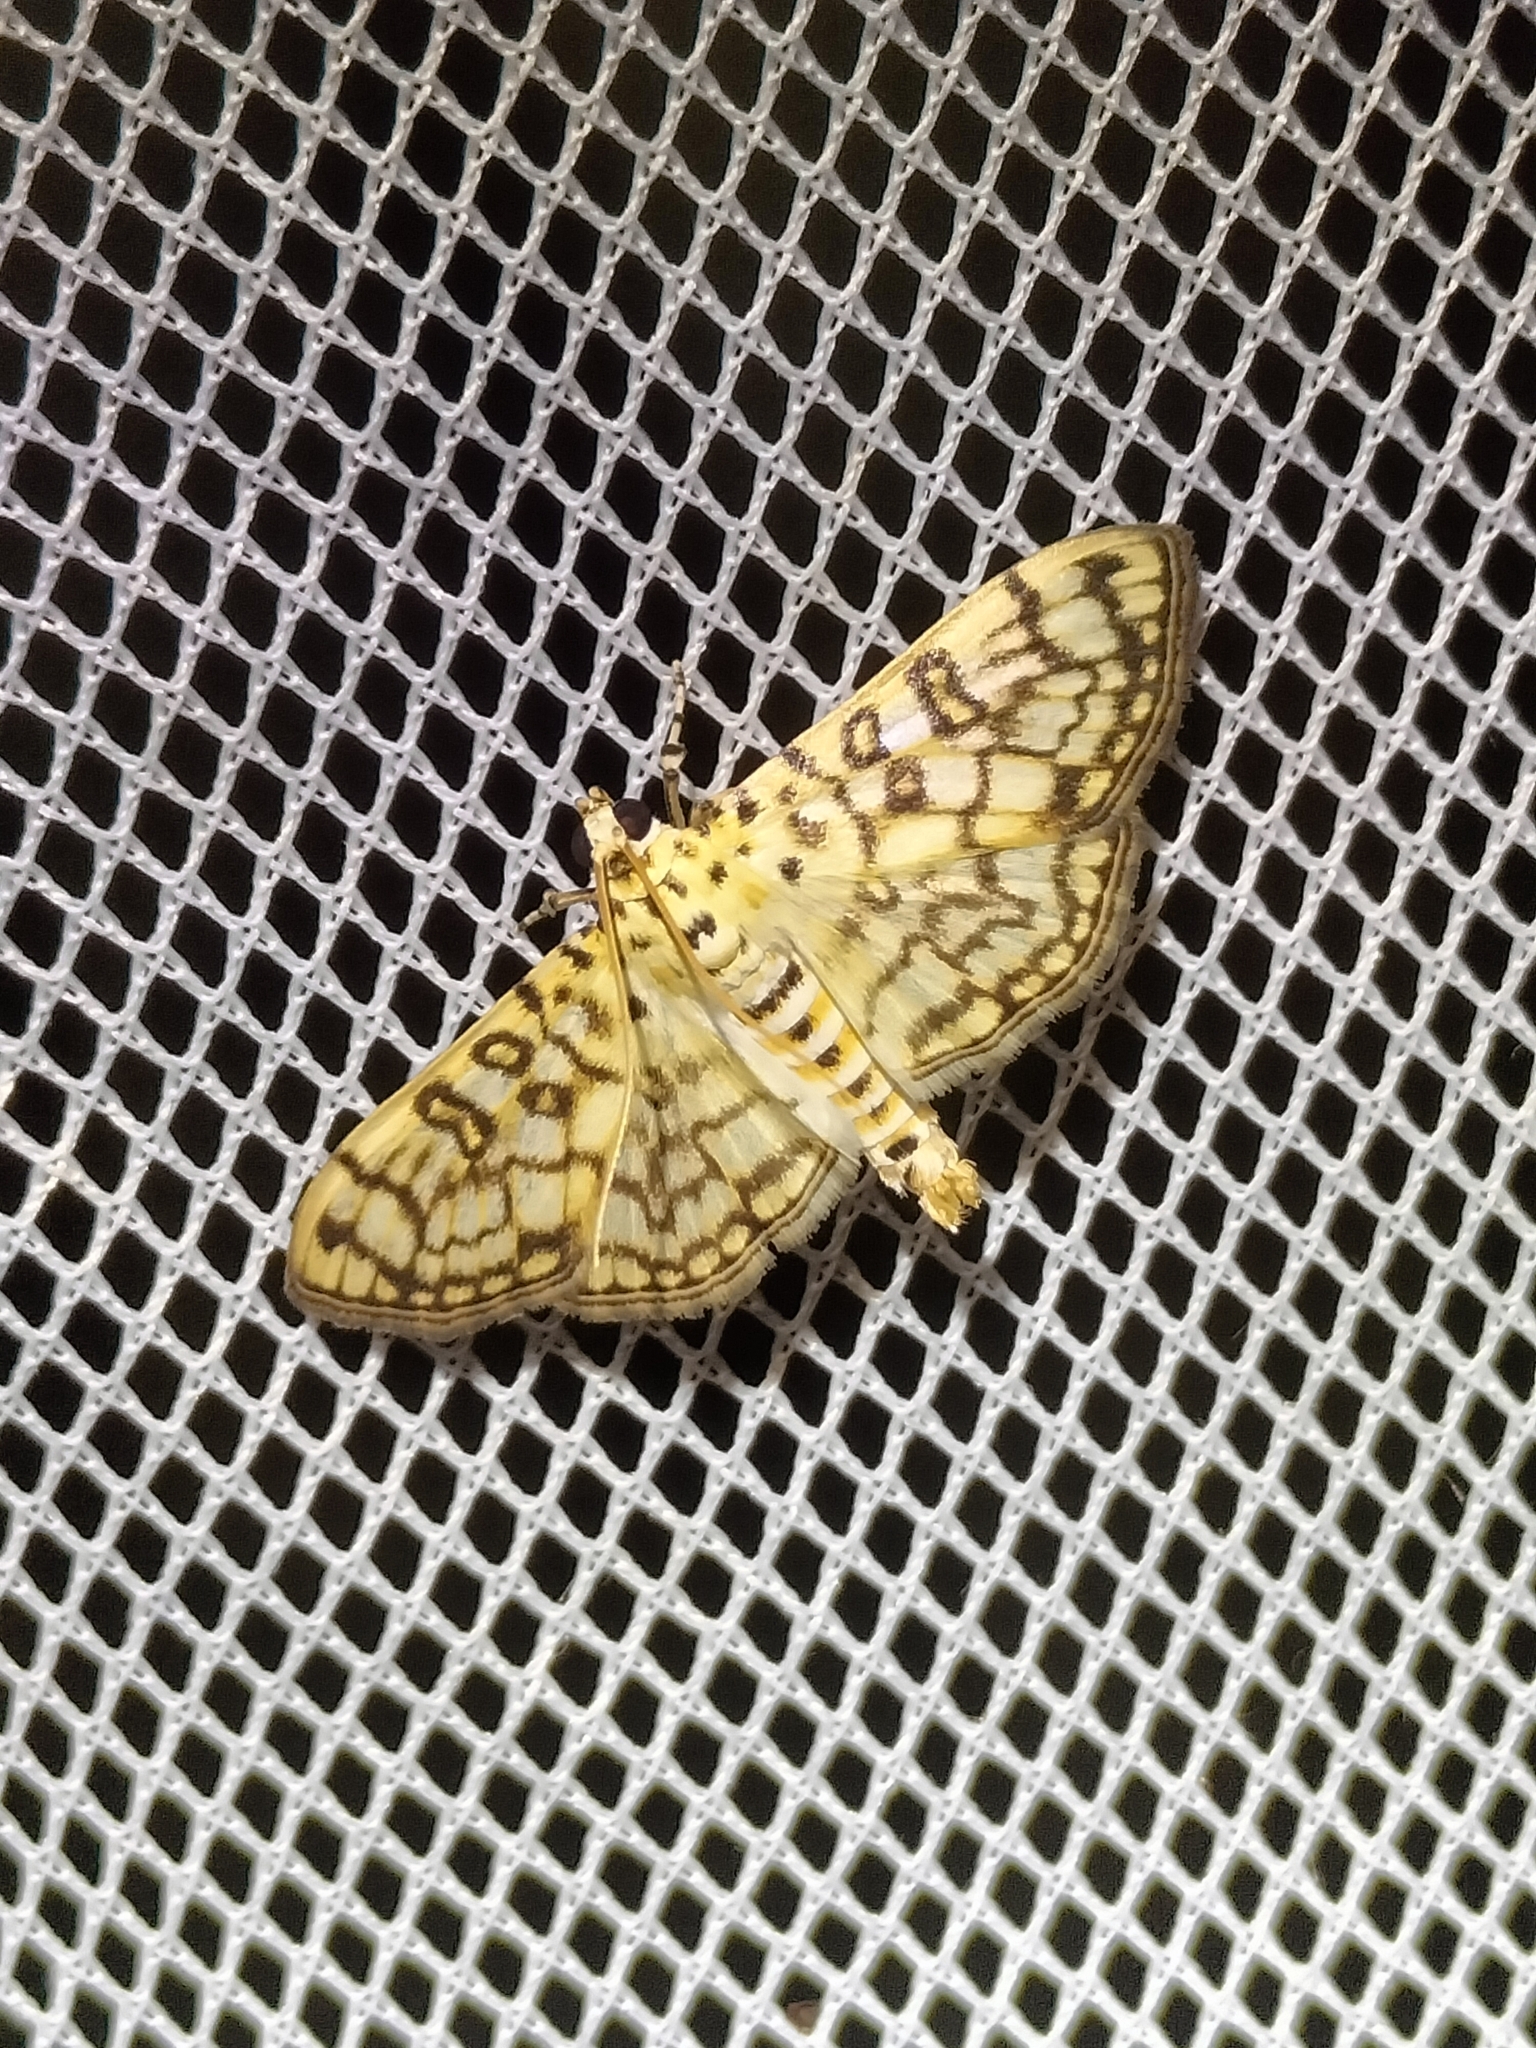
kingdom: Animalia
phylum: Arthropoda
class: Insecta
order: Lepidoptera
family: Crambidae
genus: Haritalodes
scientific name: Haritalodes derogata
